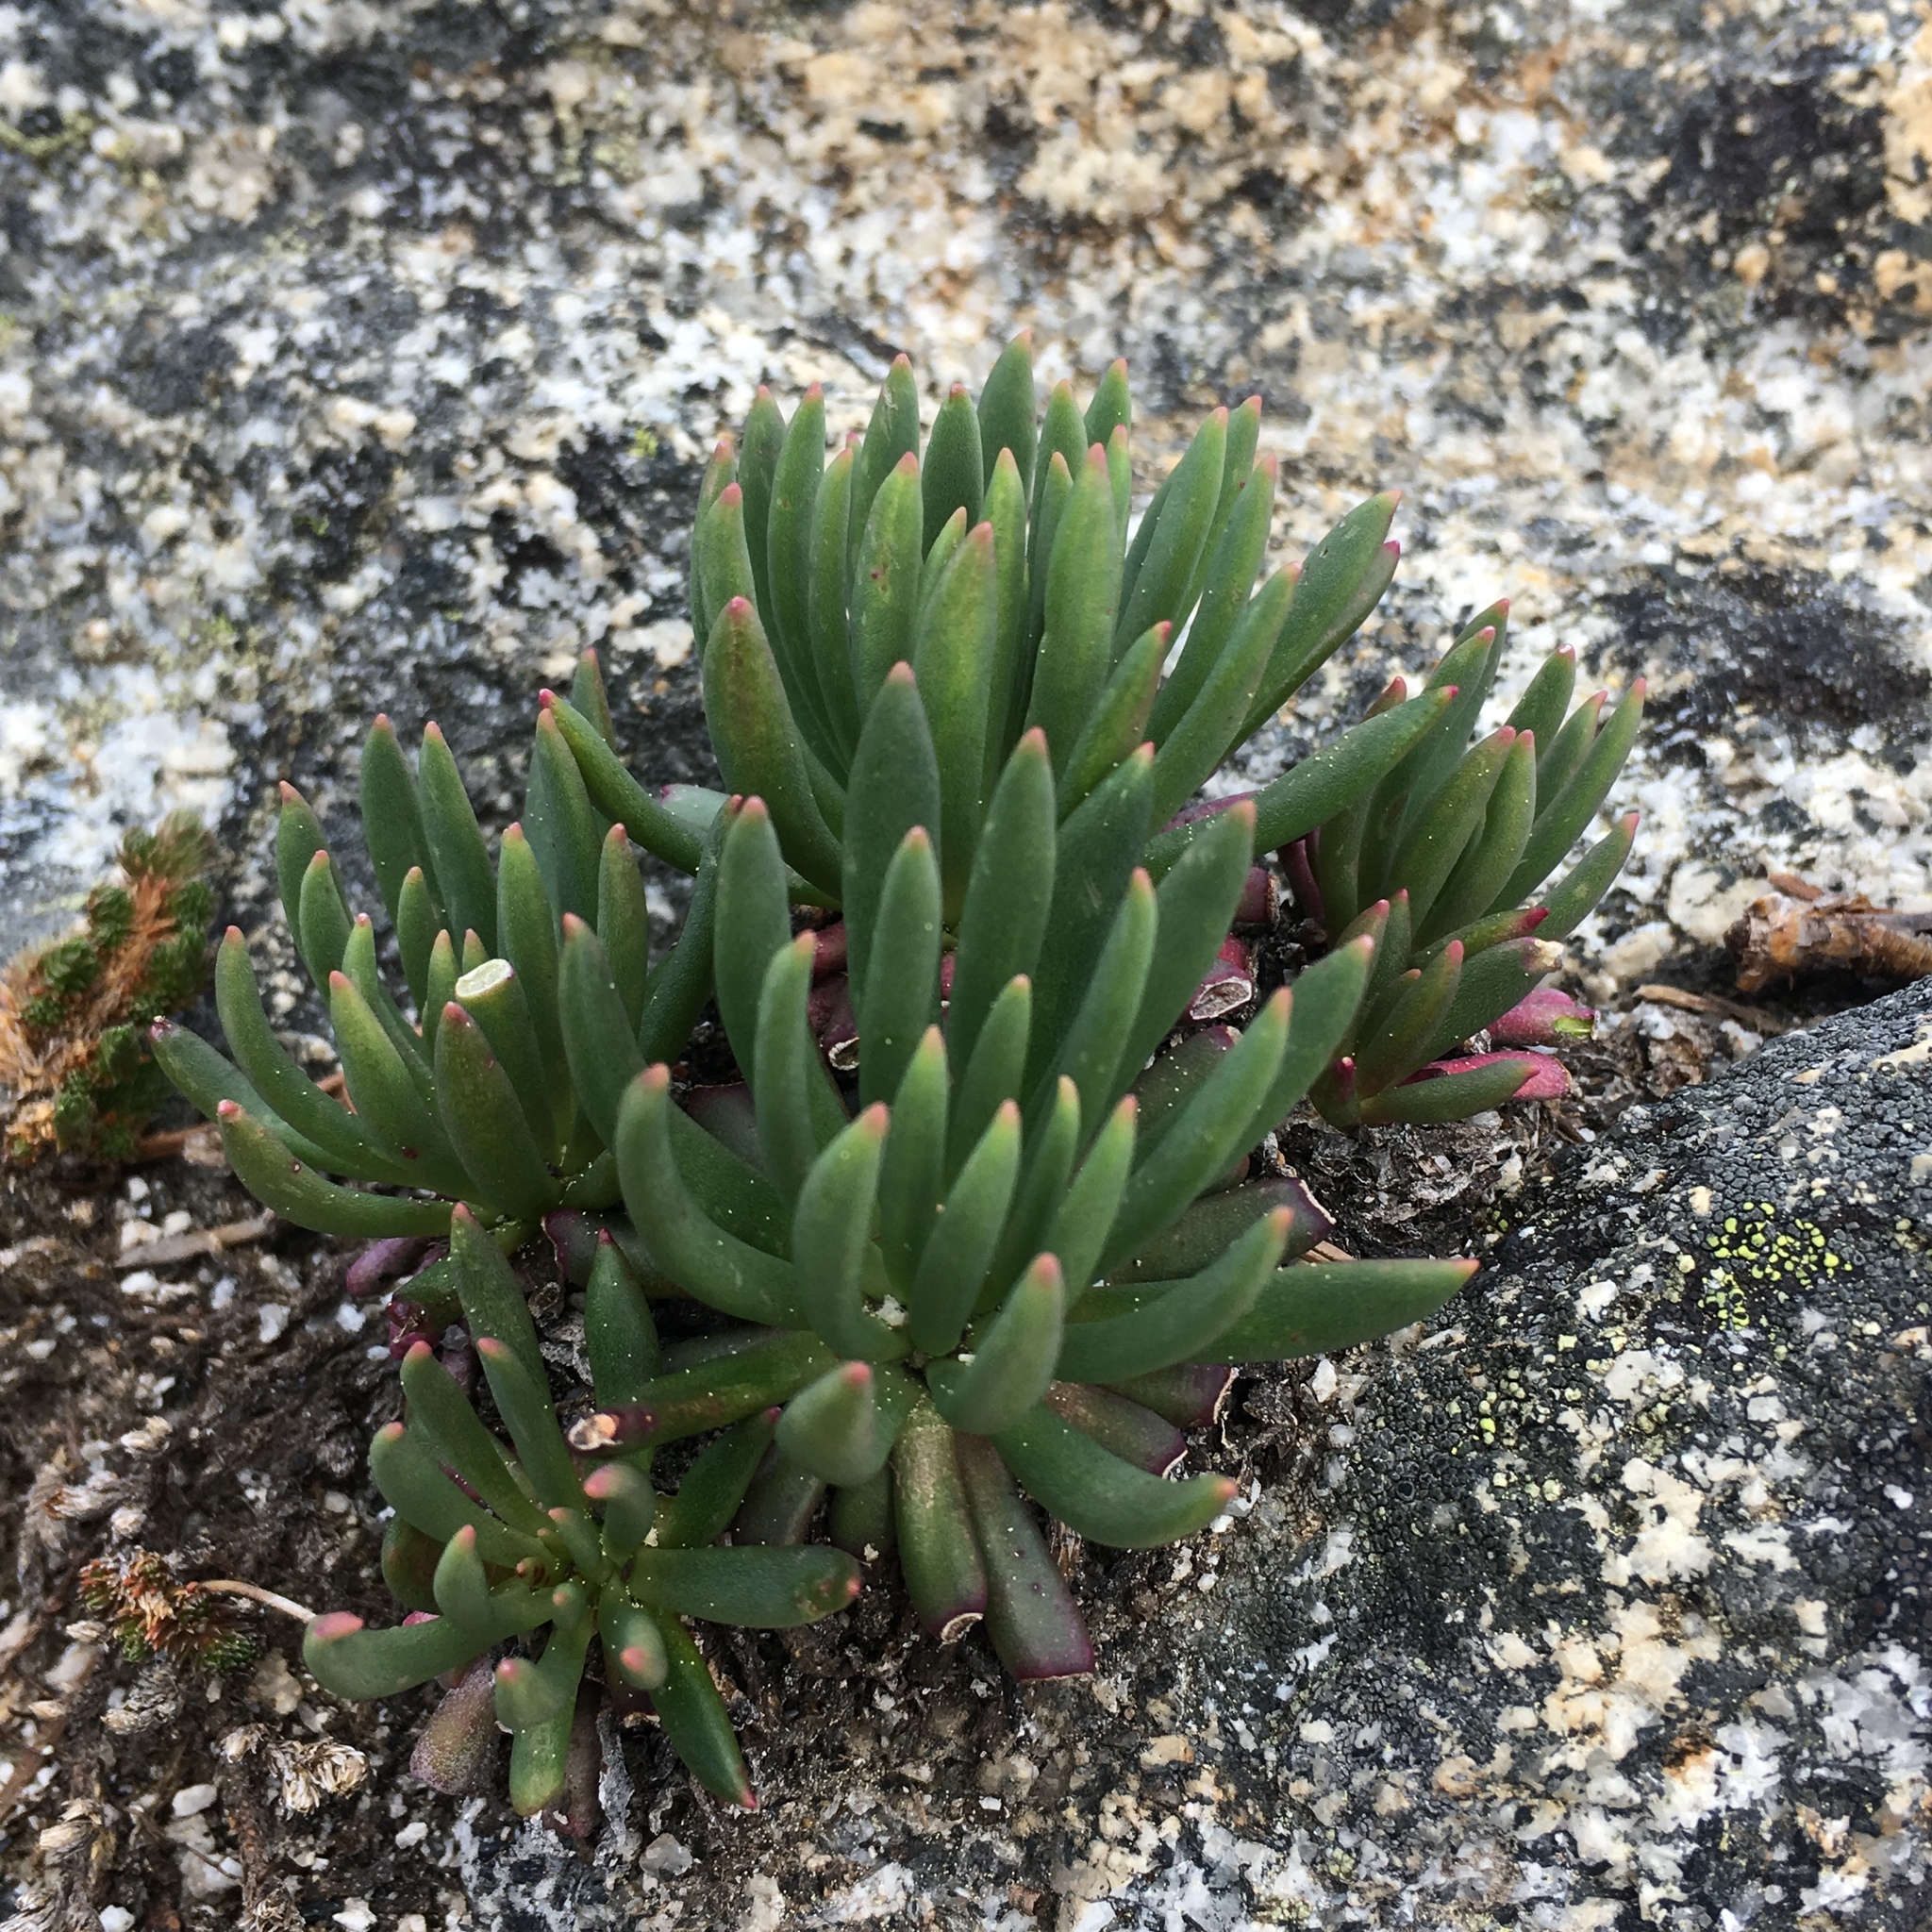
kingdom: Plantae
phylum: Tracheophyta
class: Magnoliopsida
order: Caryophyllales
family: Montiaceae
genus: Lewisia
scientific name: Lewisia leeana
